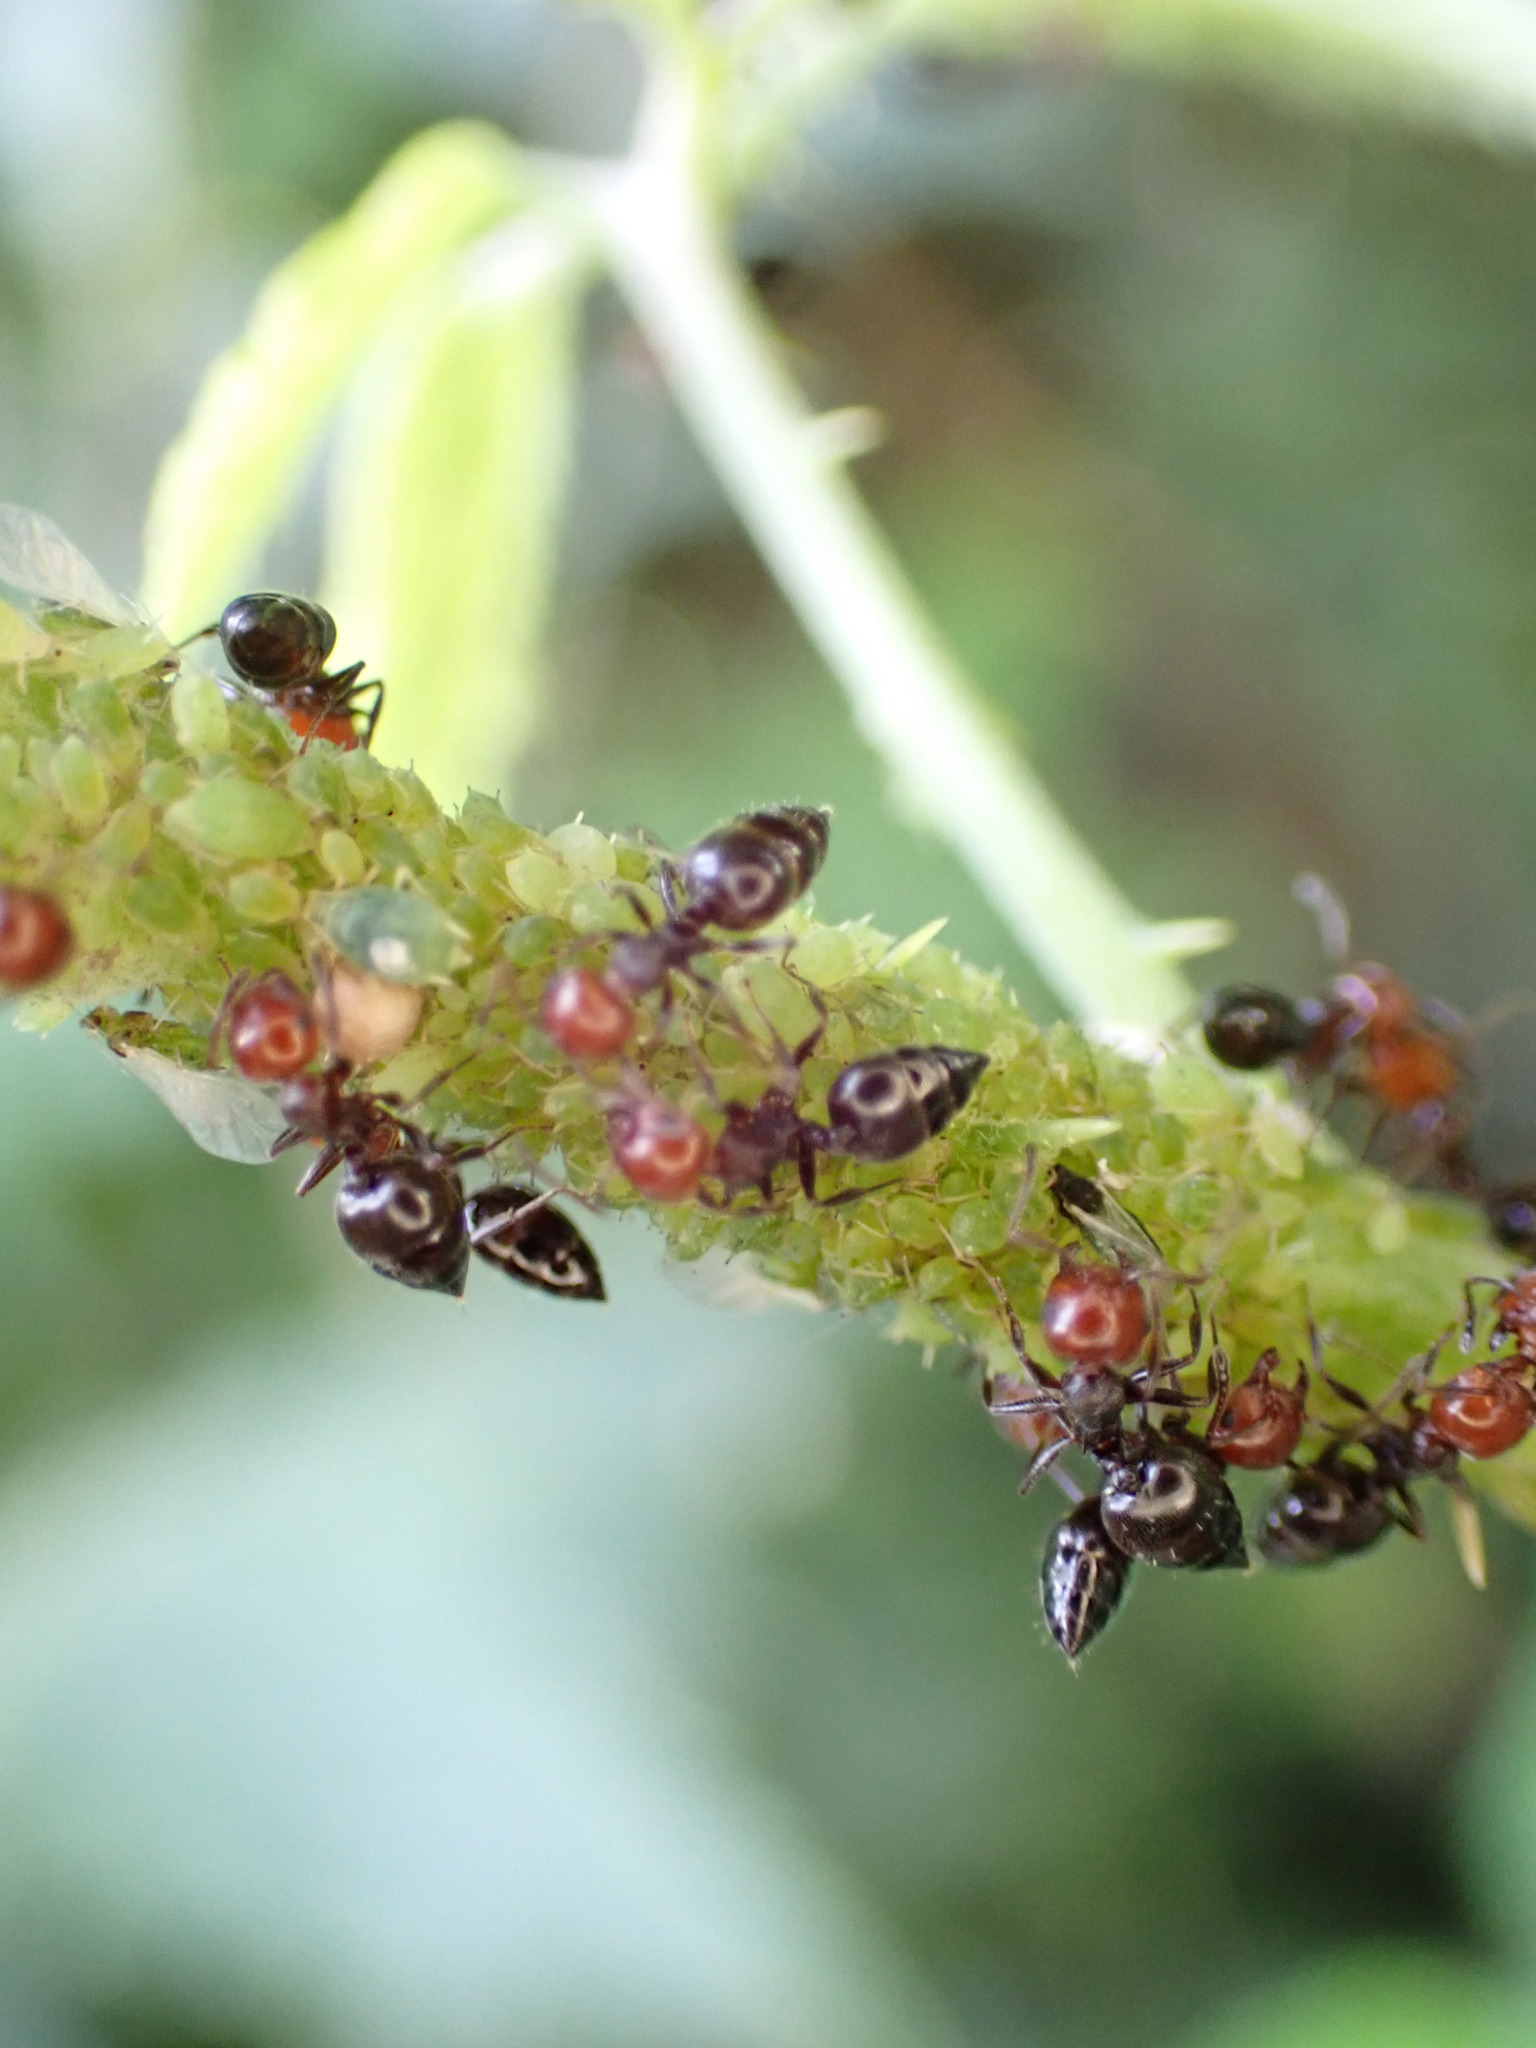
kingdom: Animalia
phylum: Arthropoda
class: Insecta
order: Hymenoptera
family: Formicidae
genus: Crematogaster
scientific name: Crematogaster scutellaris
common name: Fourmi du liège
